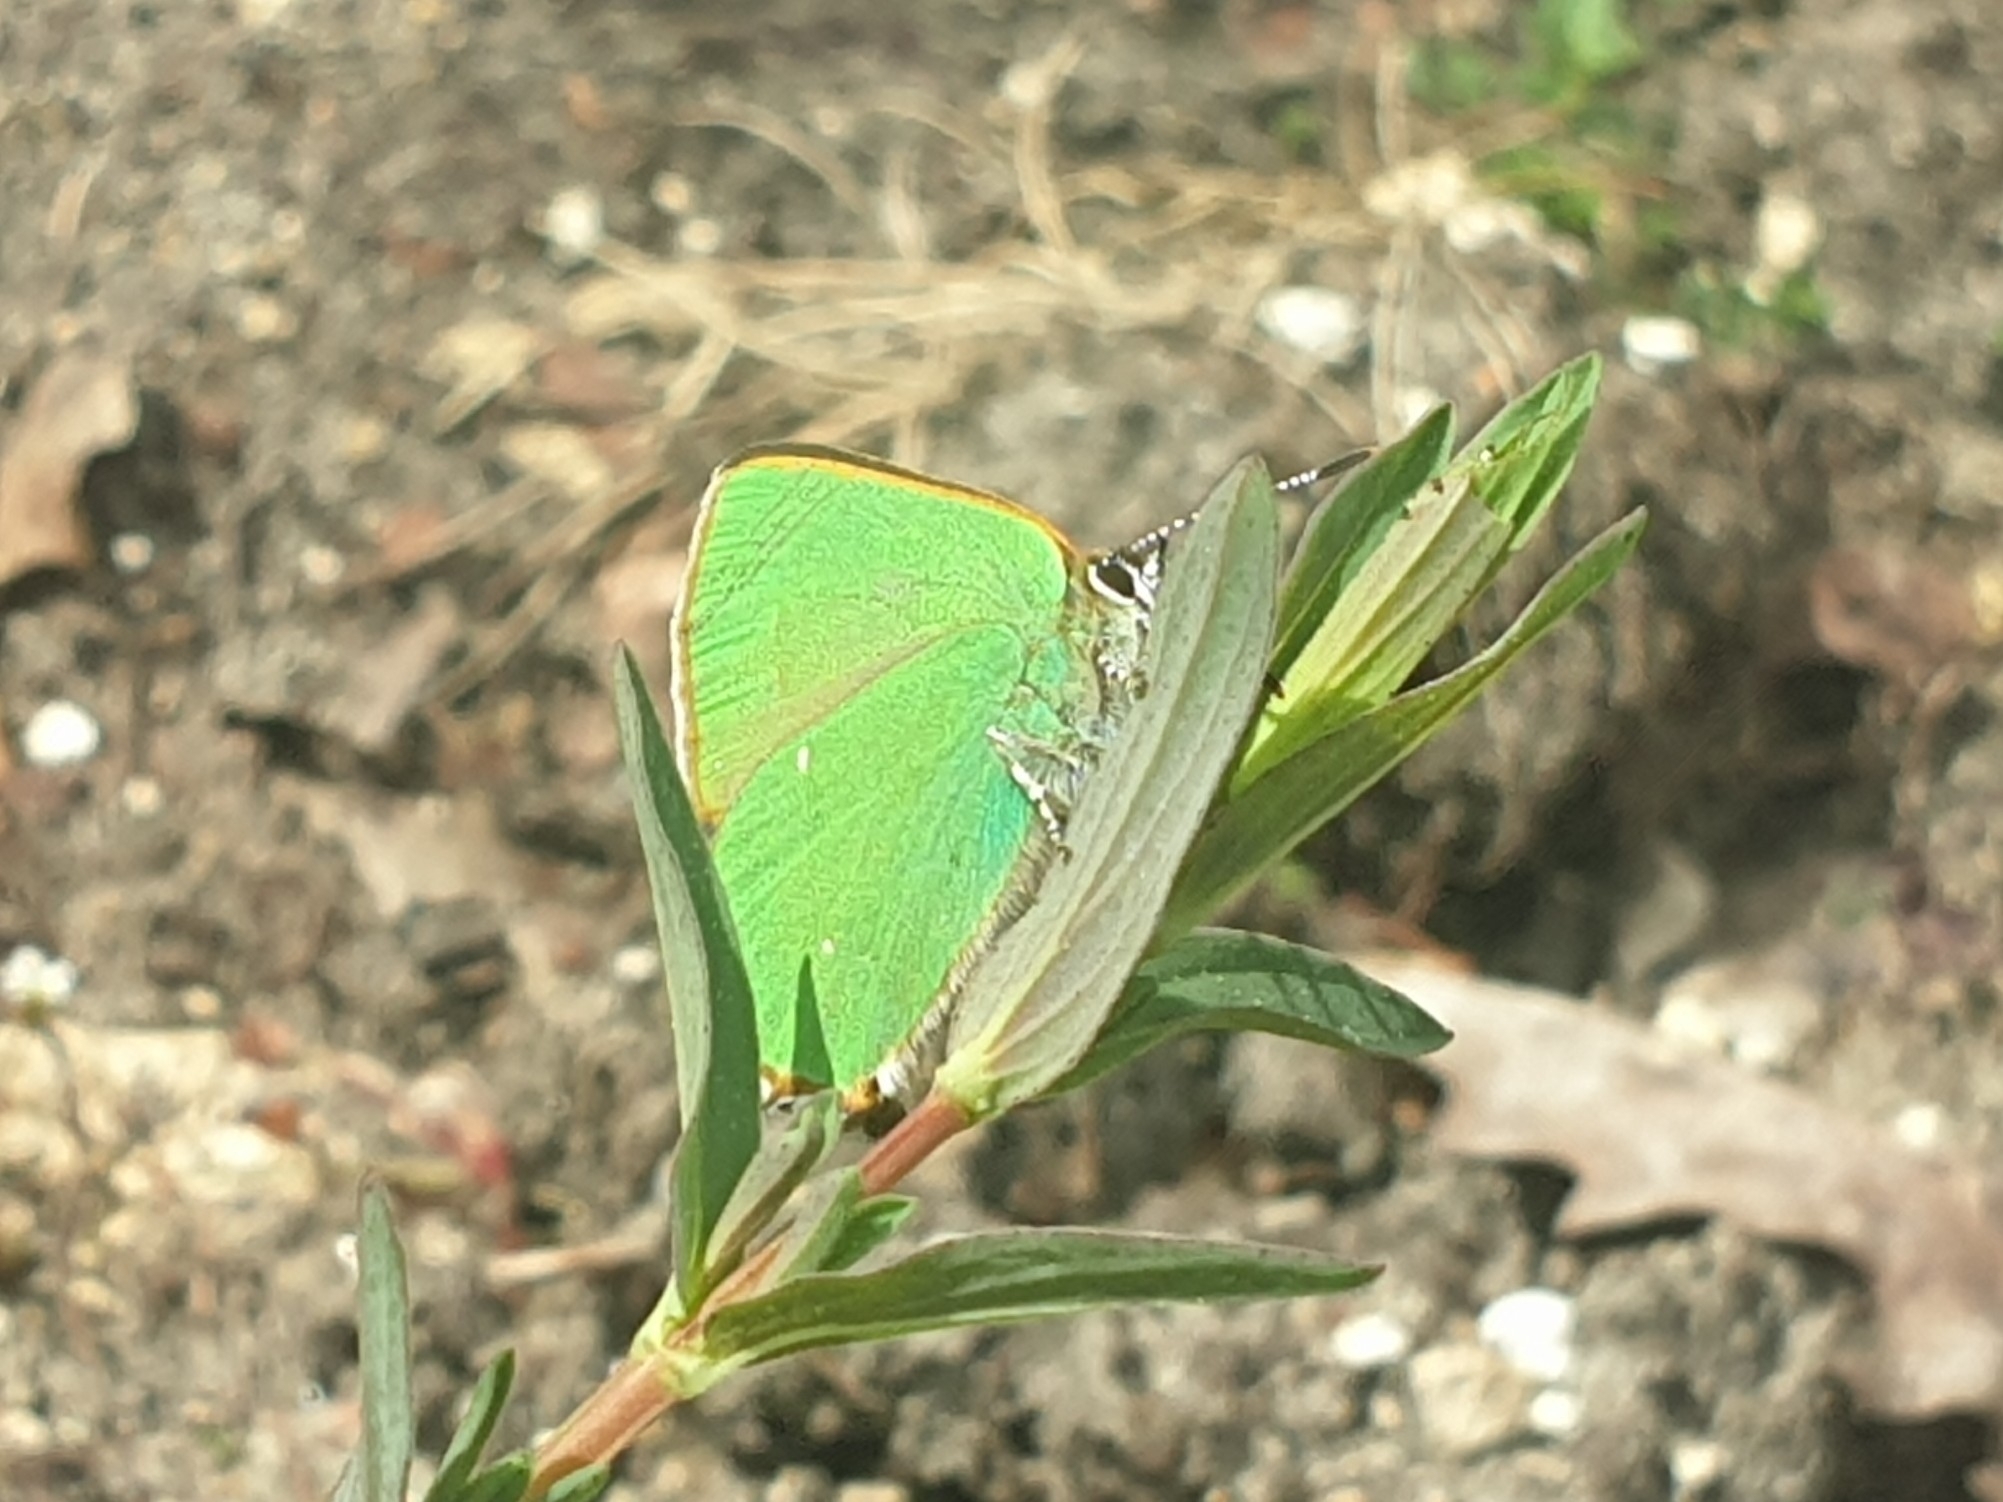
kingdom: Animalia
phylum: Arthropoda
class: Insecta
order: Lepidoptera
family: Lycaenidae
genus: Callophrys
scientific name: Callophrys rubi
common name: Green hairstreak
